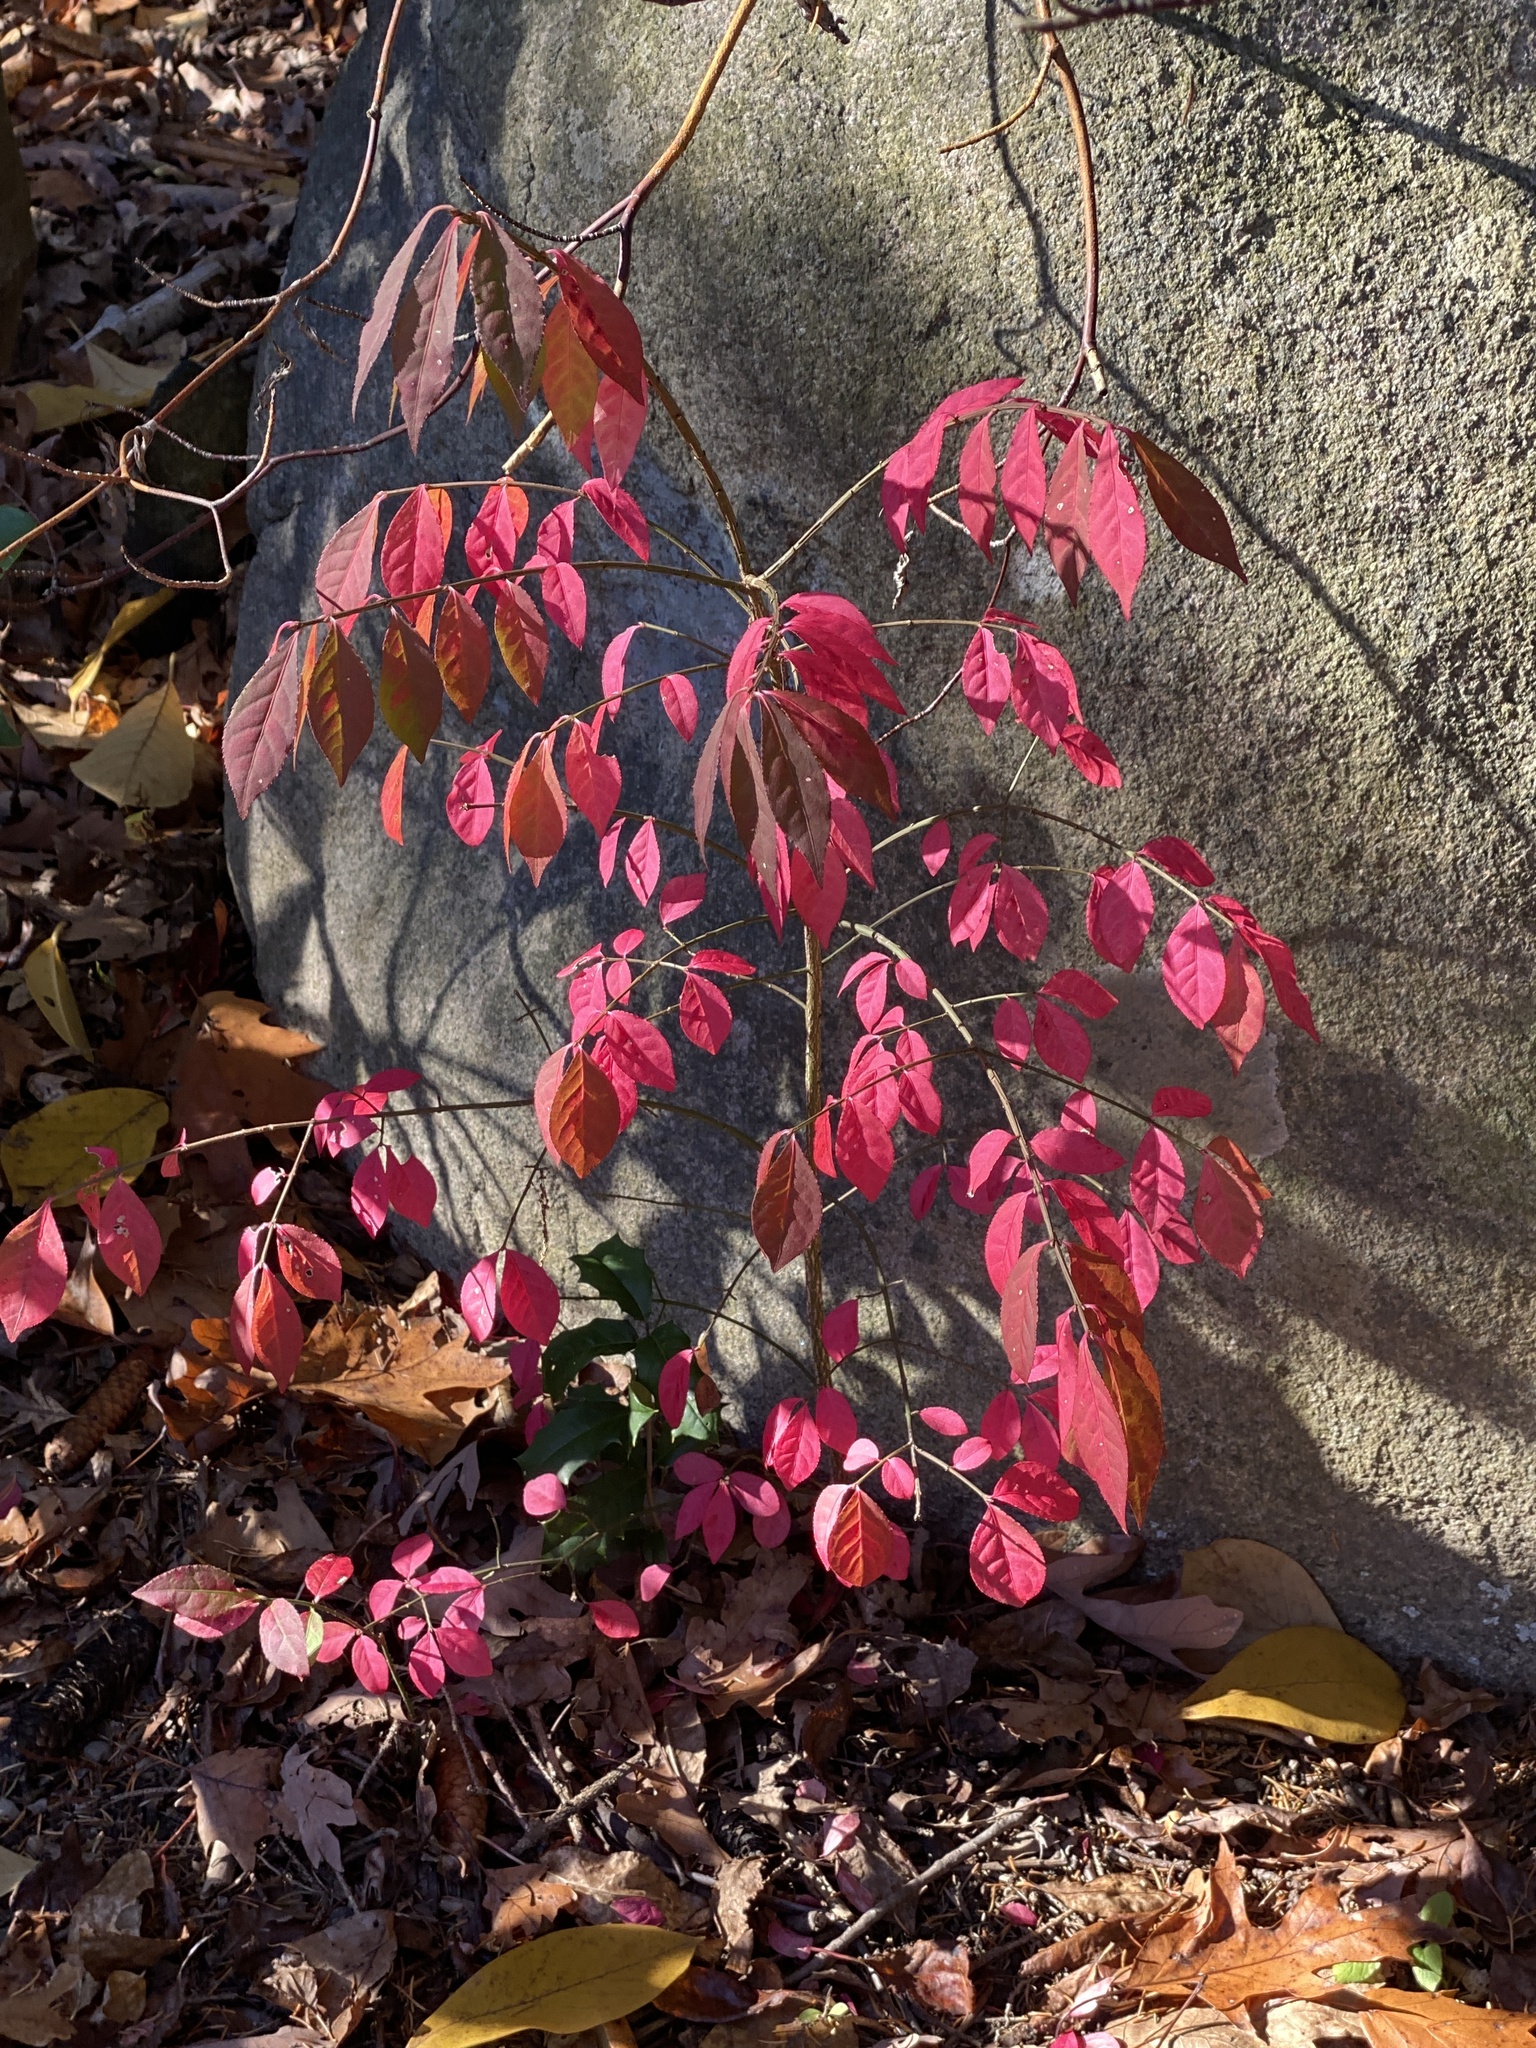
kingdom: Plantae
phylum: Tracheophyta
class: Magnoliopsida
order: Celastrales
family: Celastraceae
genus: Euonymus
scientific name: Euonymus alatus
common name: Winged euonymus
